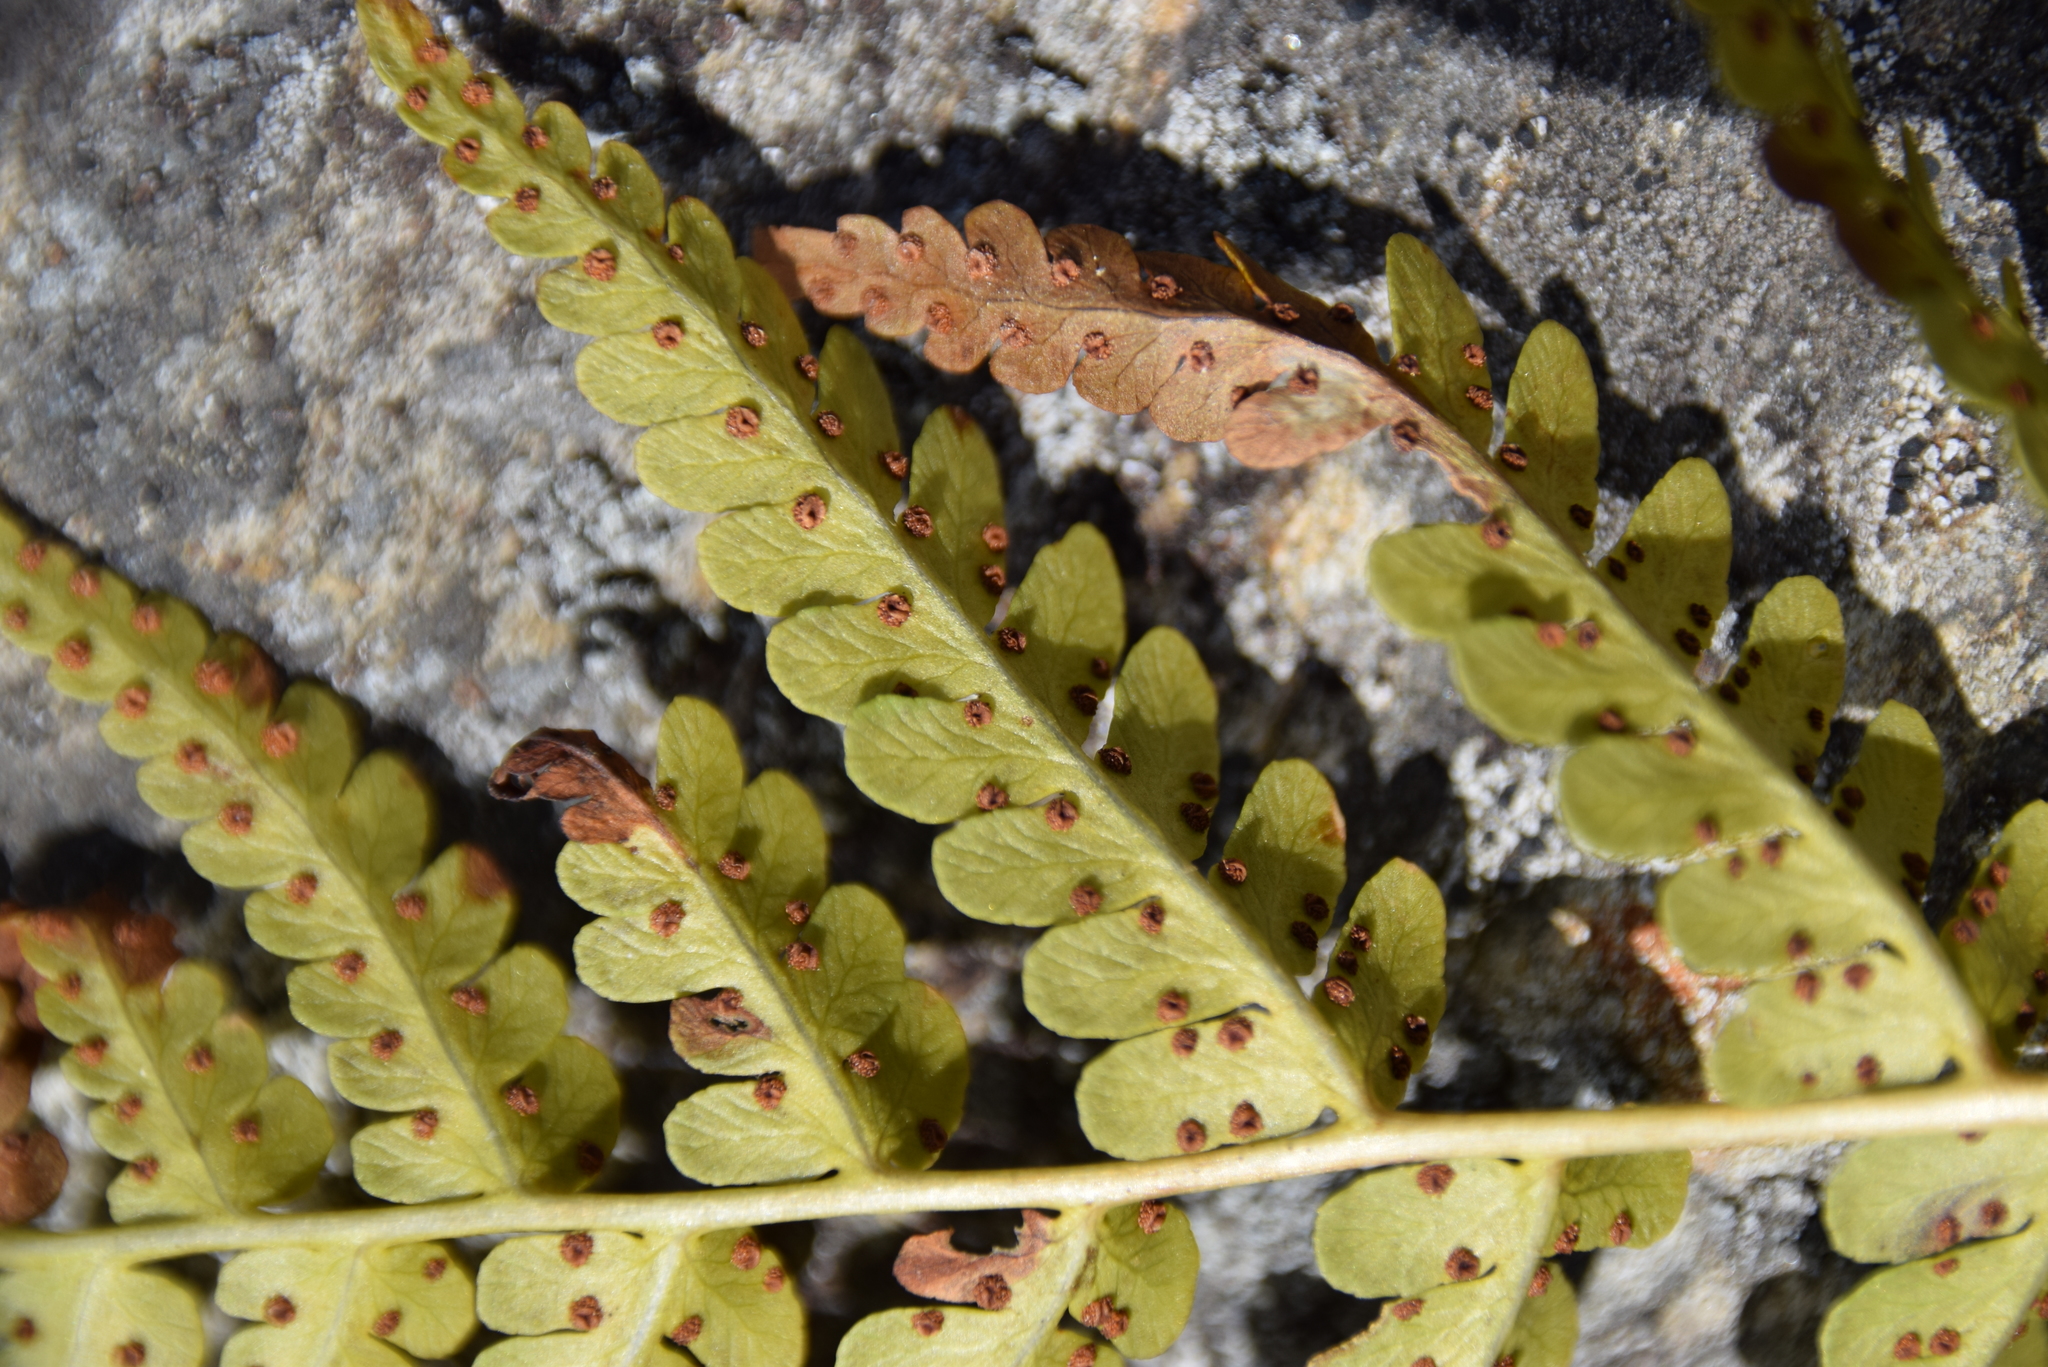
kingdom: Plantae
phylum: Tracheophyta
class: Polypodiopsida
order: Polypodiales
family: Dryopteridaceae
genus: Dryopteris
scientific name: Dryopteris marginalis
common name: Marginal wood fern
